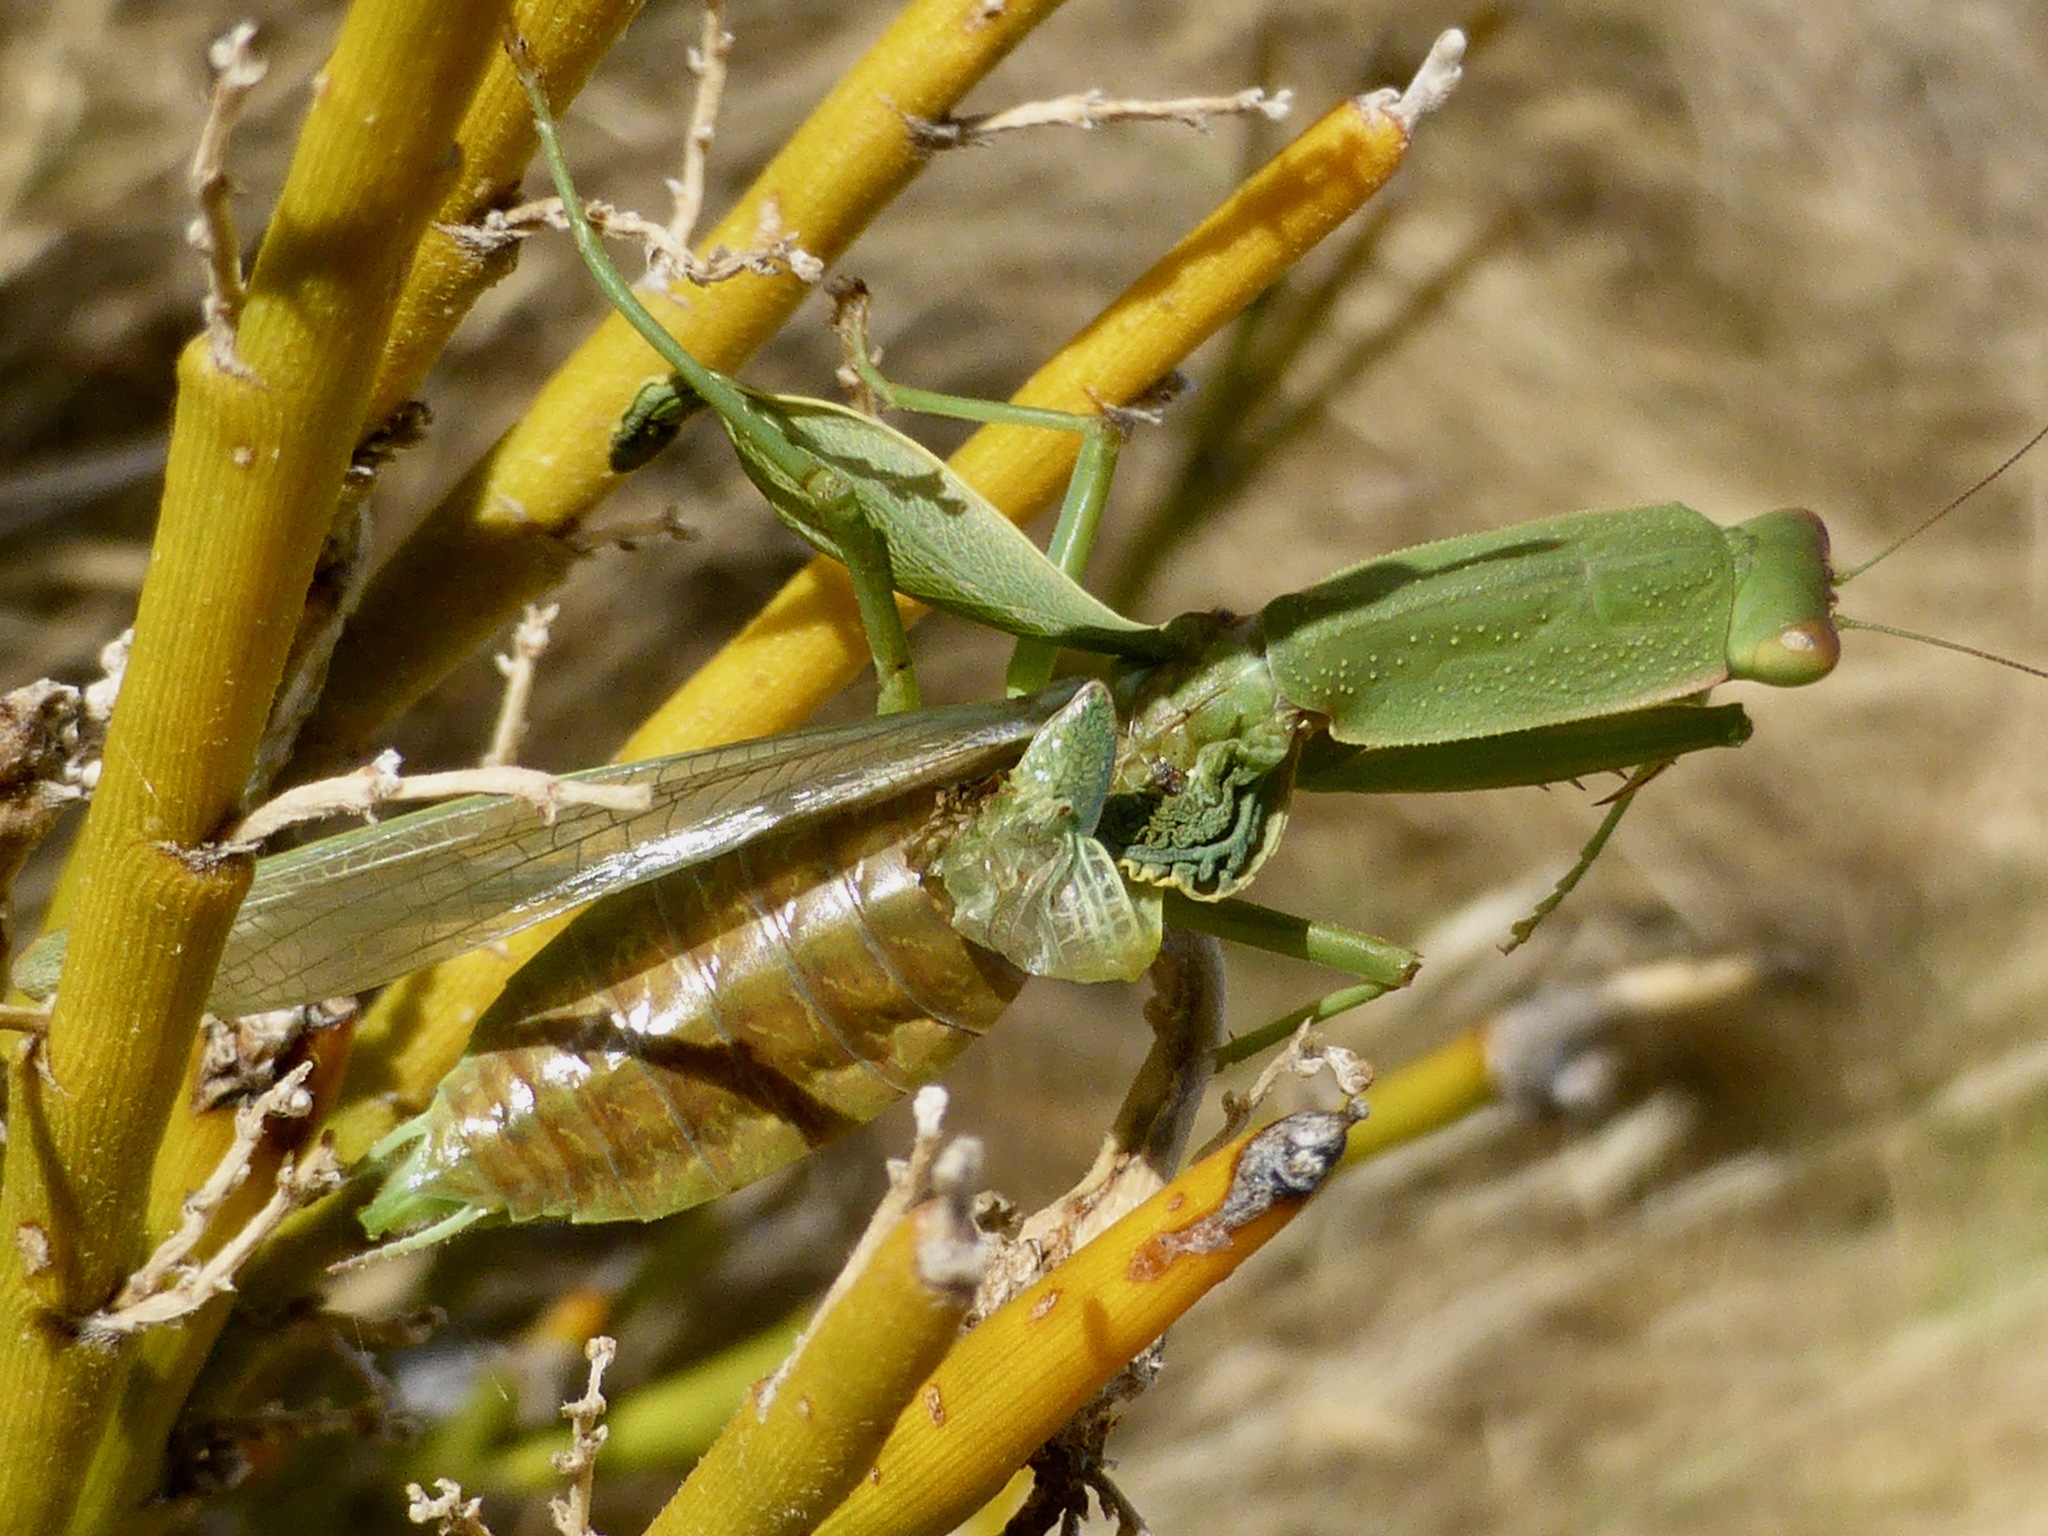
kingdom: Animalia
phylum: Arthropoda
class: Insecta
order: Mantodea
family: Mantidae
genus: Orthodera
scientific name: Orthodera novaezealandiae
